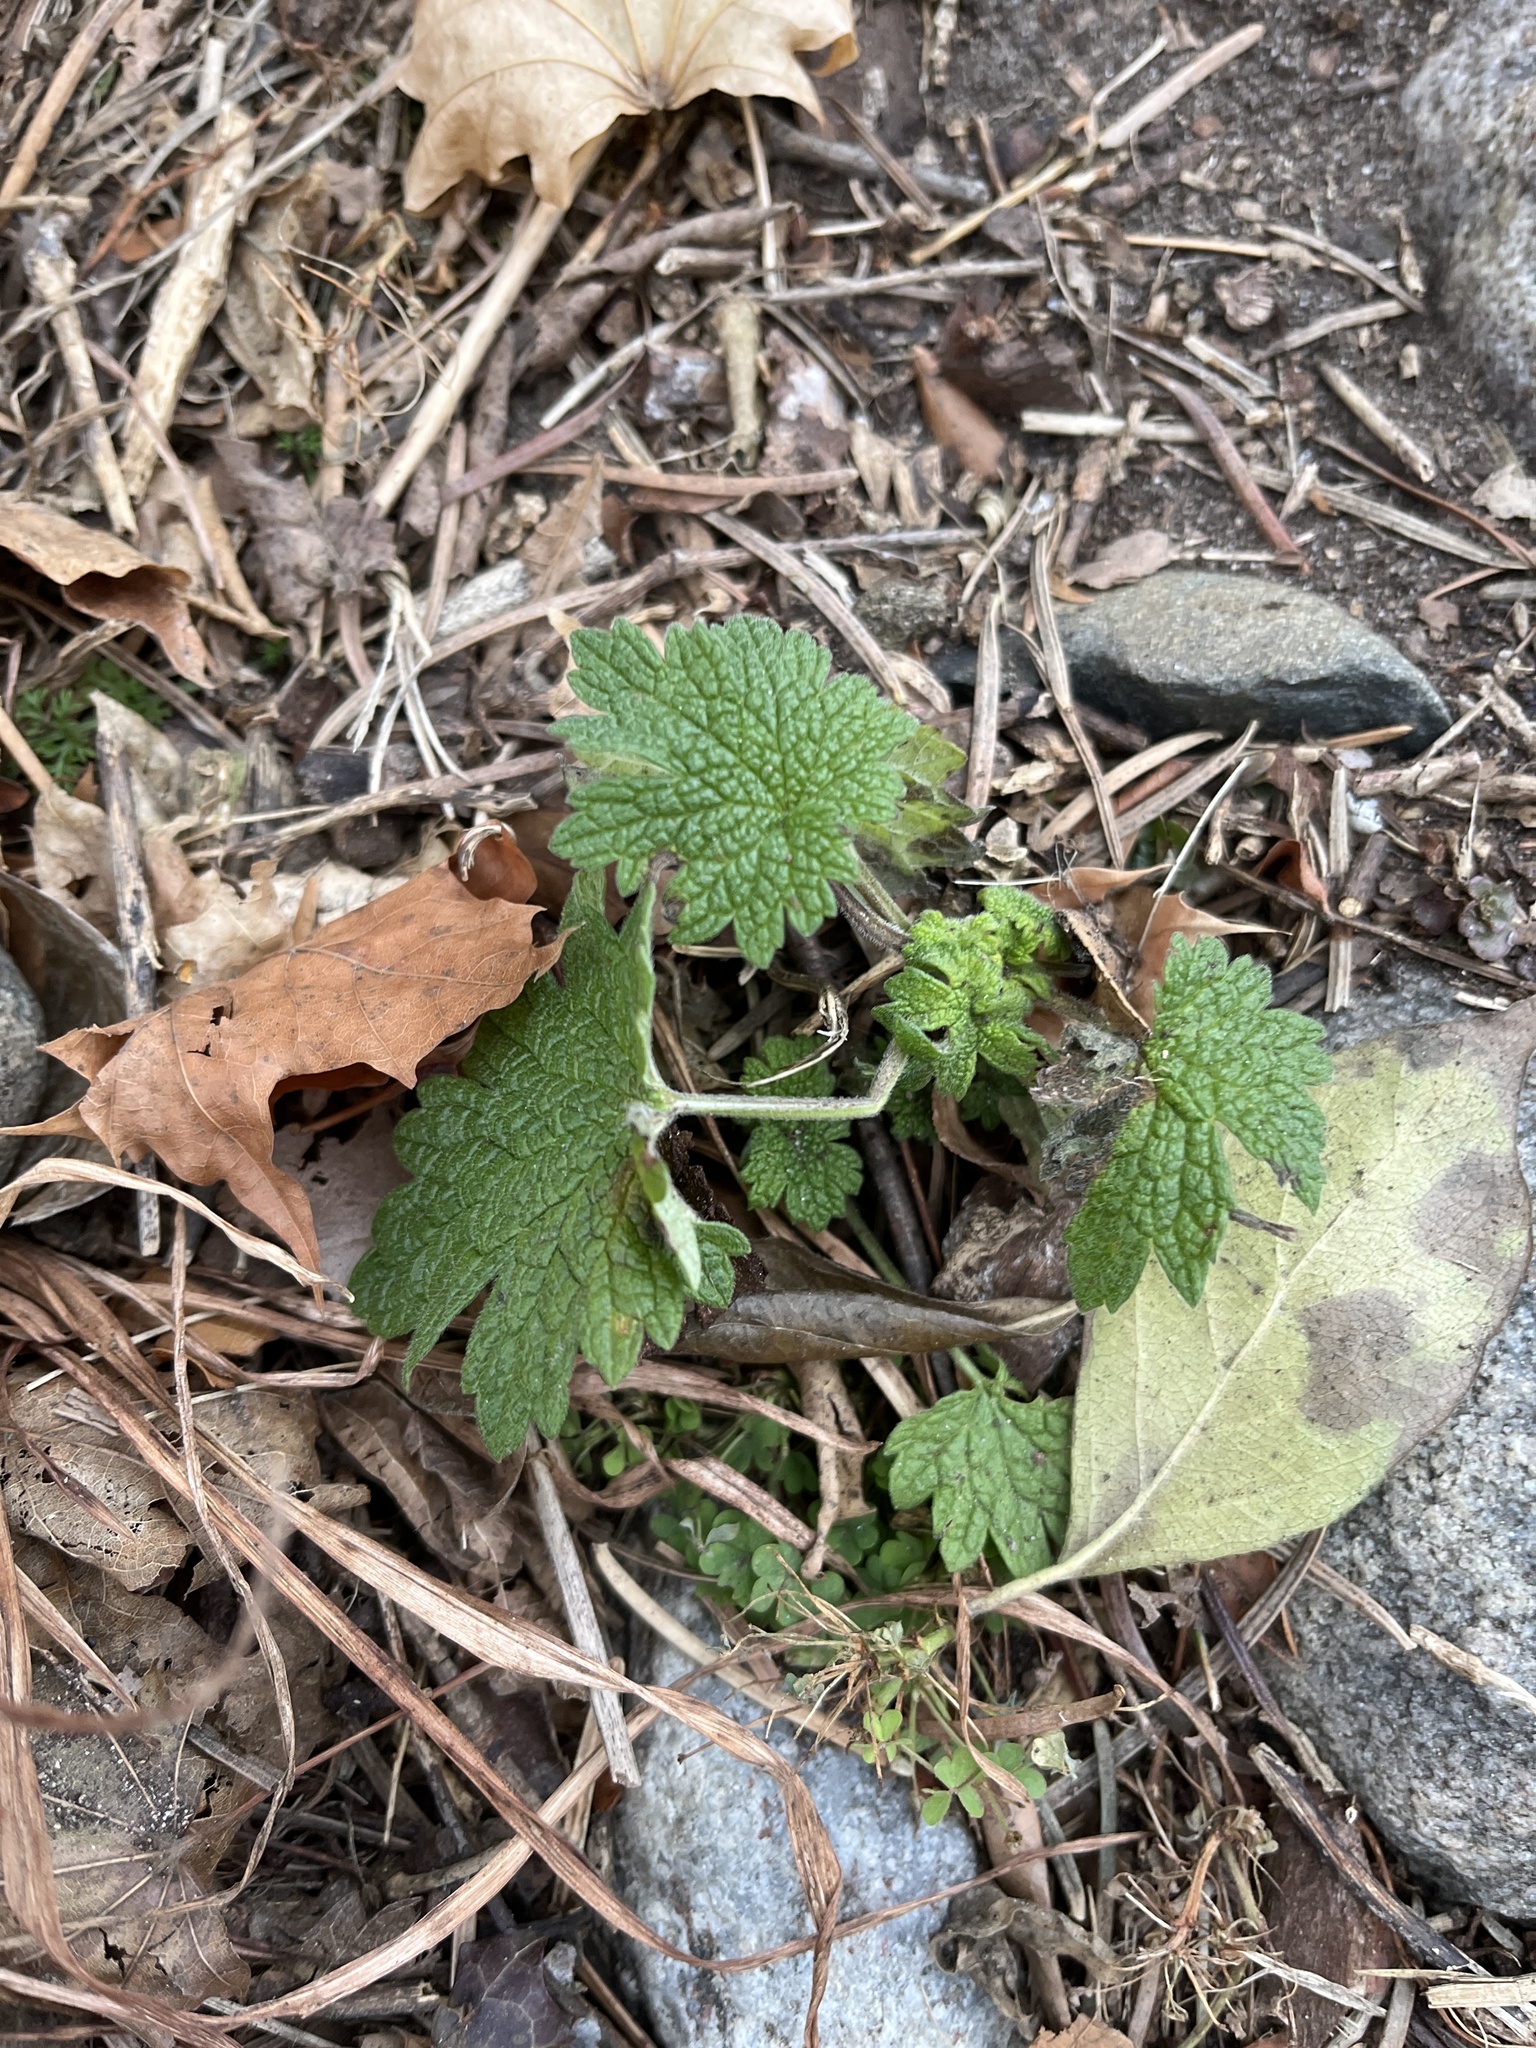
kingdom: Plantae
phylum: Tracheophyta
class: Magnoliopsida
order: Lamiales
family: Lamiaceae
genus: Leonurus
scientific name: Leonurus cardiaca
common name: Motherwort
